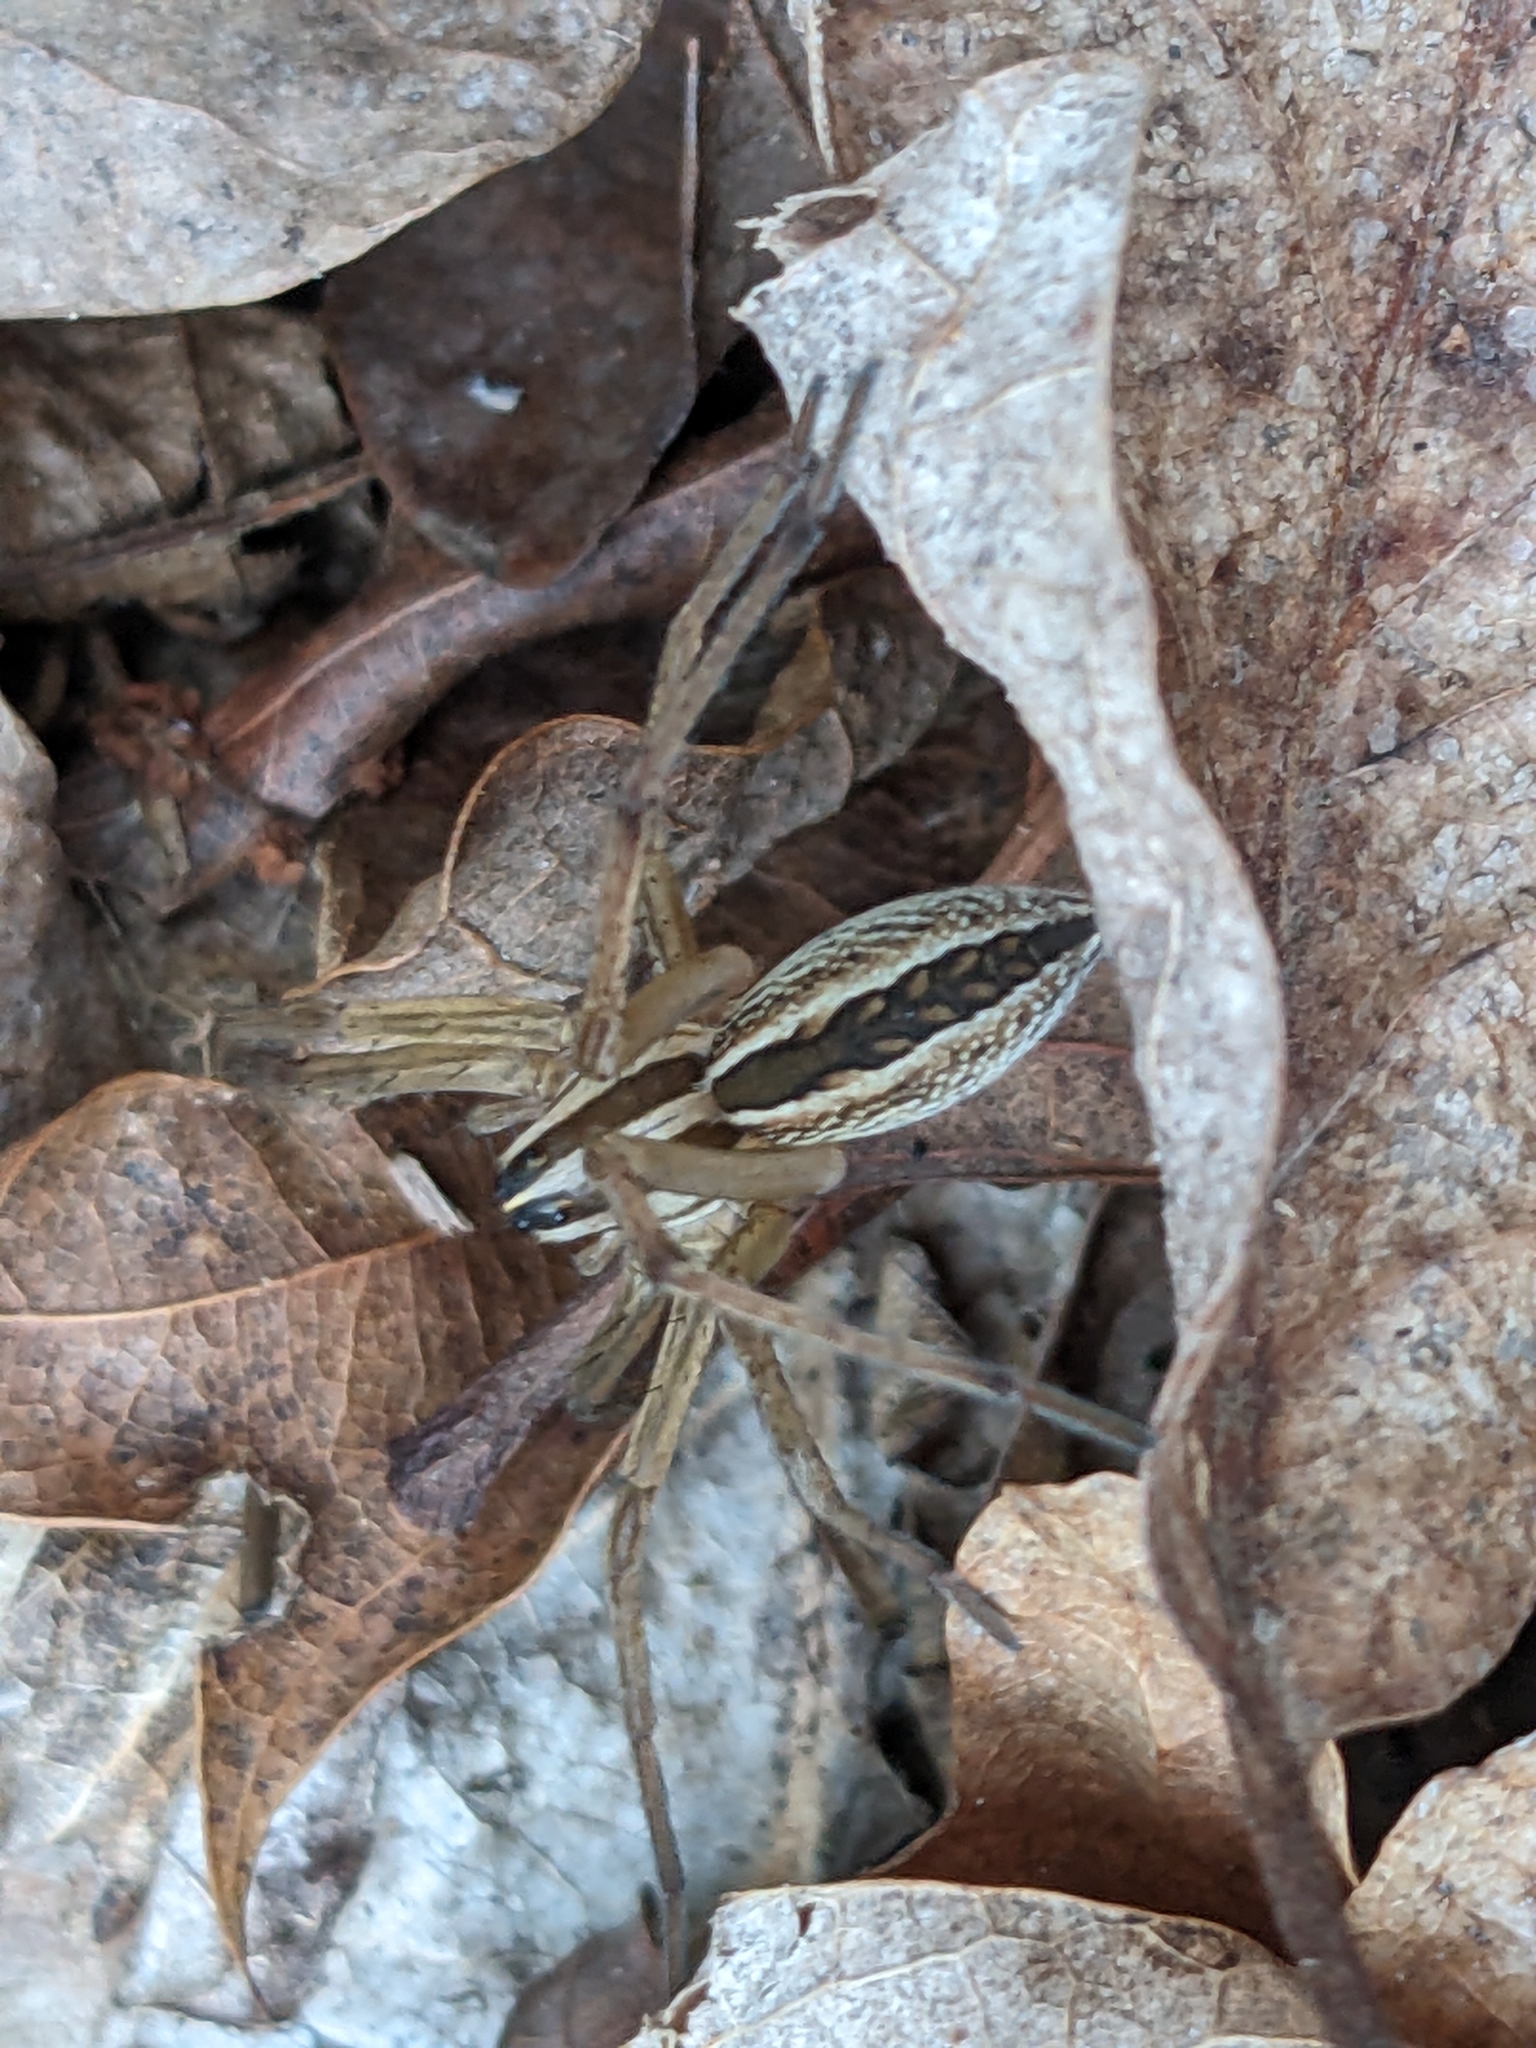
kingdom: Animalia
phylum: Arthropoda
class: Arachnida
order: Araneae
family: Lycosidae
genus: Rabidosa
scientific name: Rabidosa rabida
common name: Rabid wolf spider
